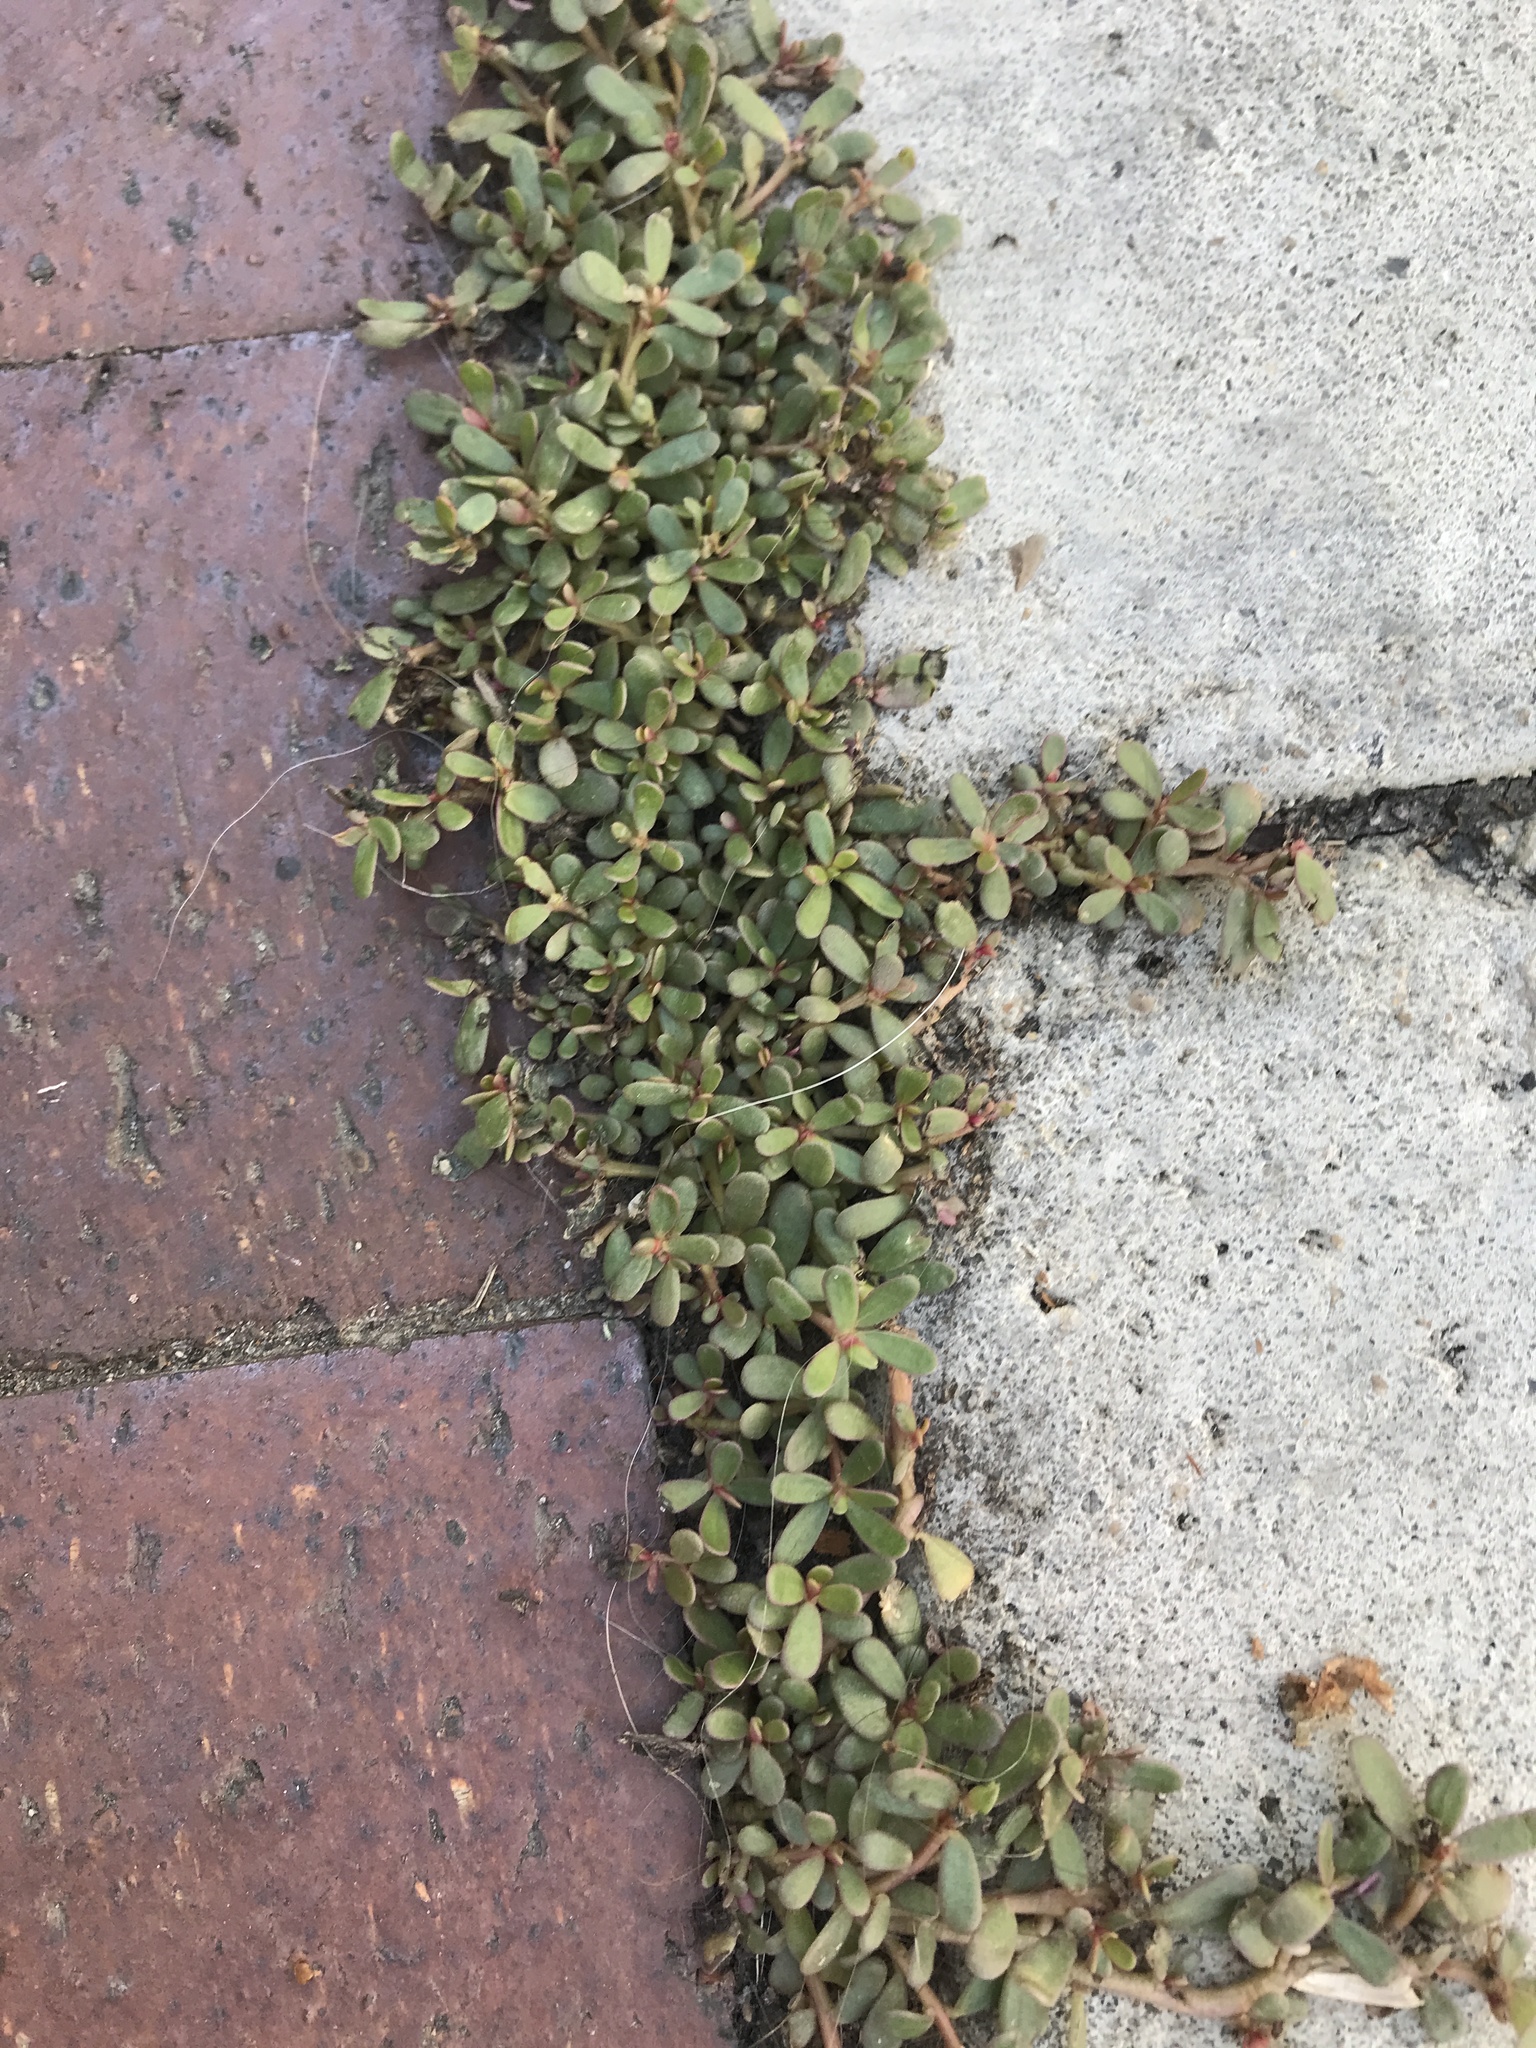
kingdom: Plantae
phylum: Tracheophyta
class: Magnoliopsida
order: Caryophyllales
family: Portulacaceae
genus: Portulaca
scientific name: Portulaca oleracea
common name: Common purslane
